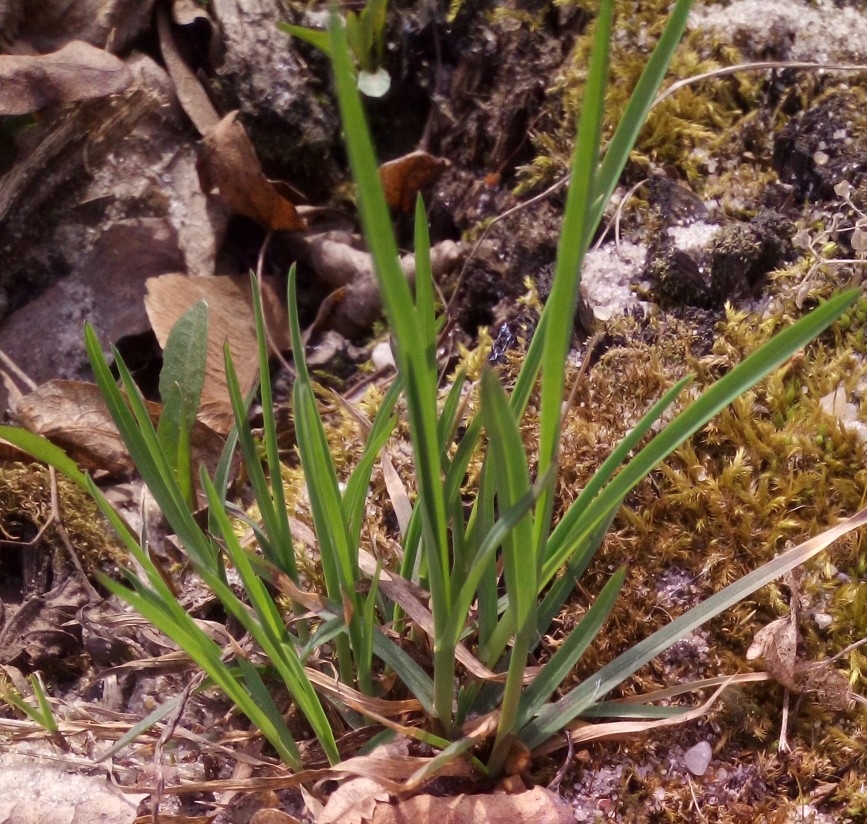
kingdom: Plantae
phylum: Tracheophyta
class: Liliopsida
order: Poales
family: Cyperaceae
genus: Carex
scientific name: Carex pilosa
